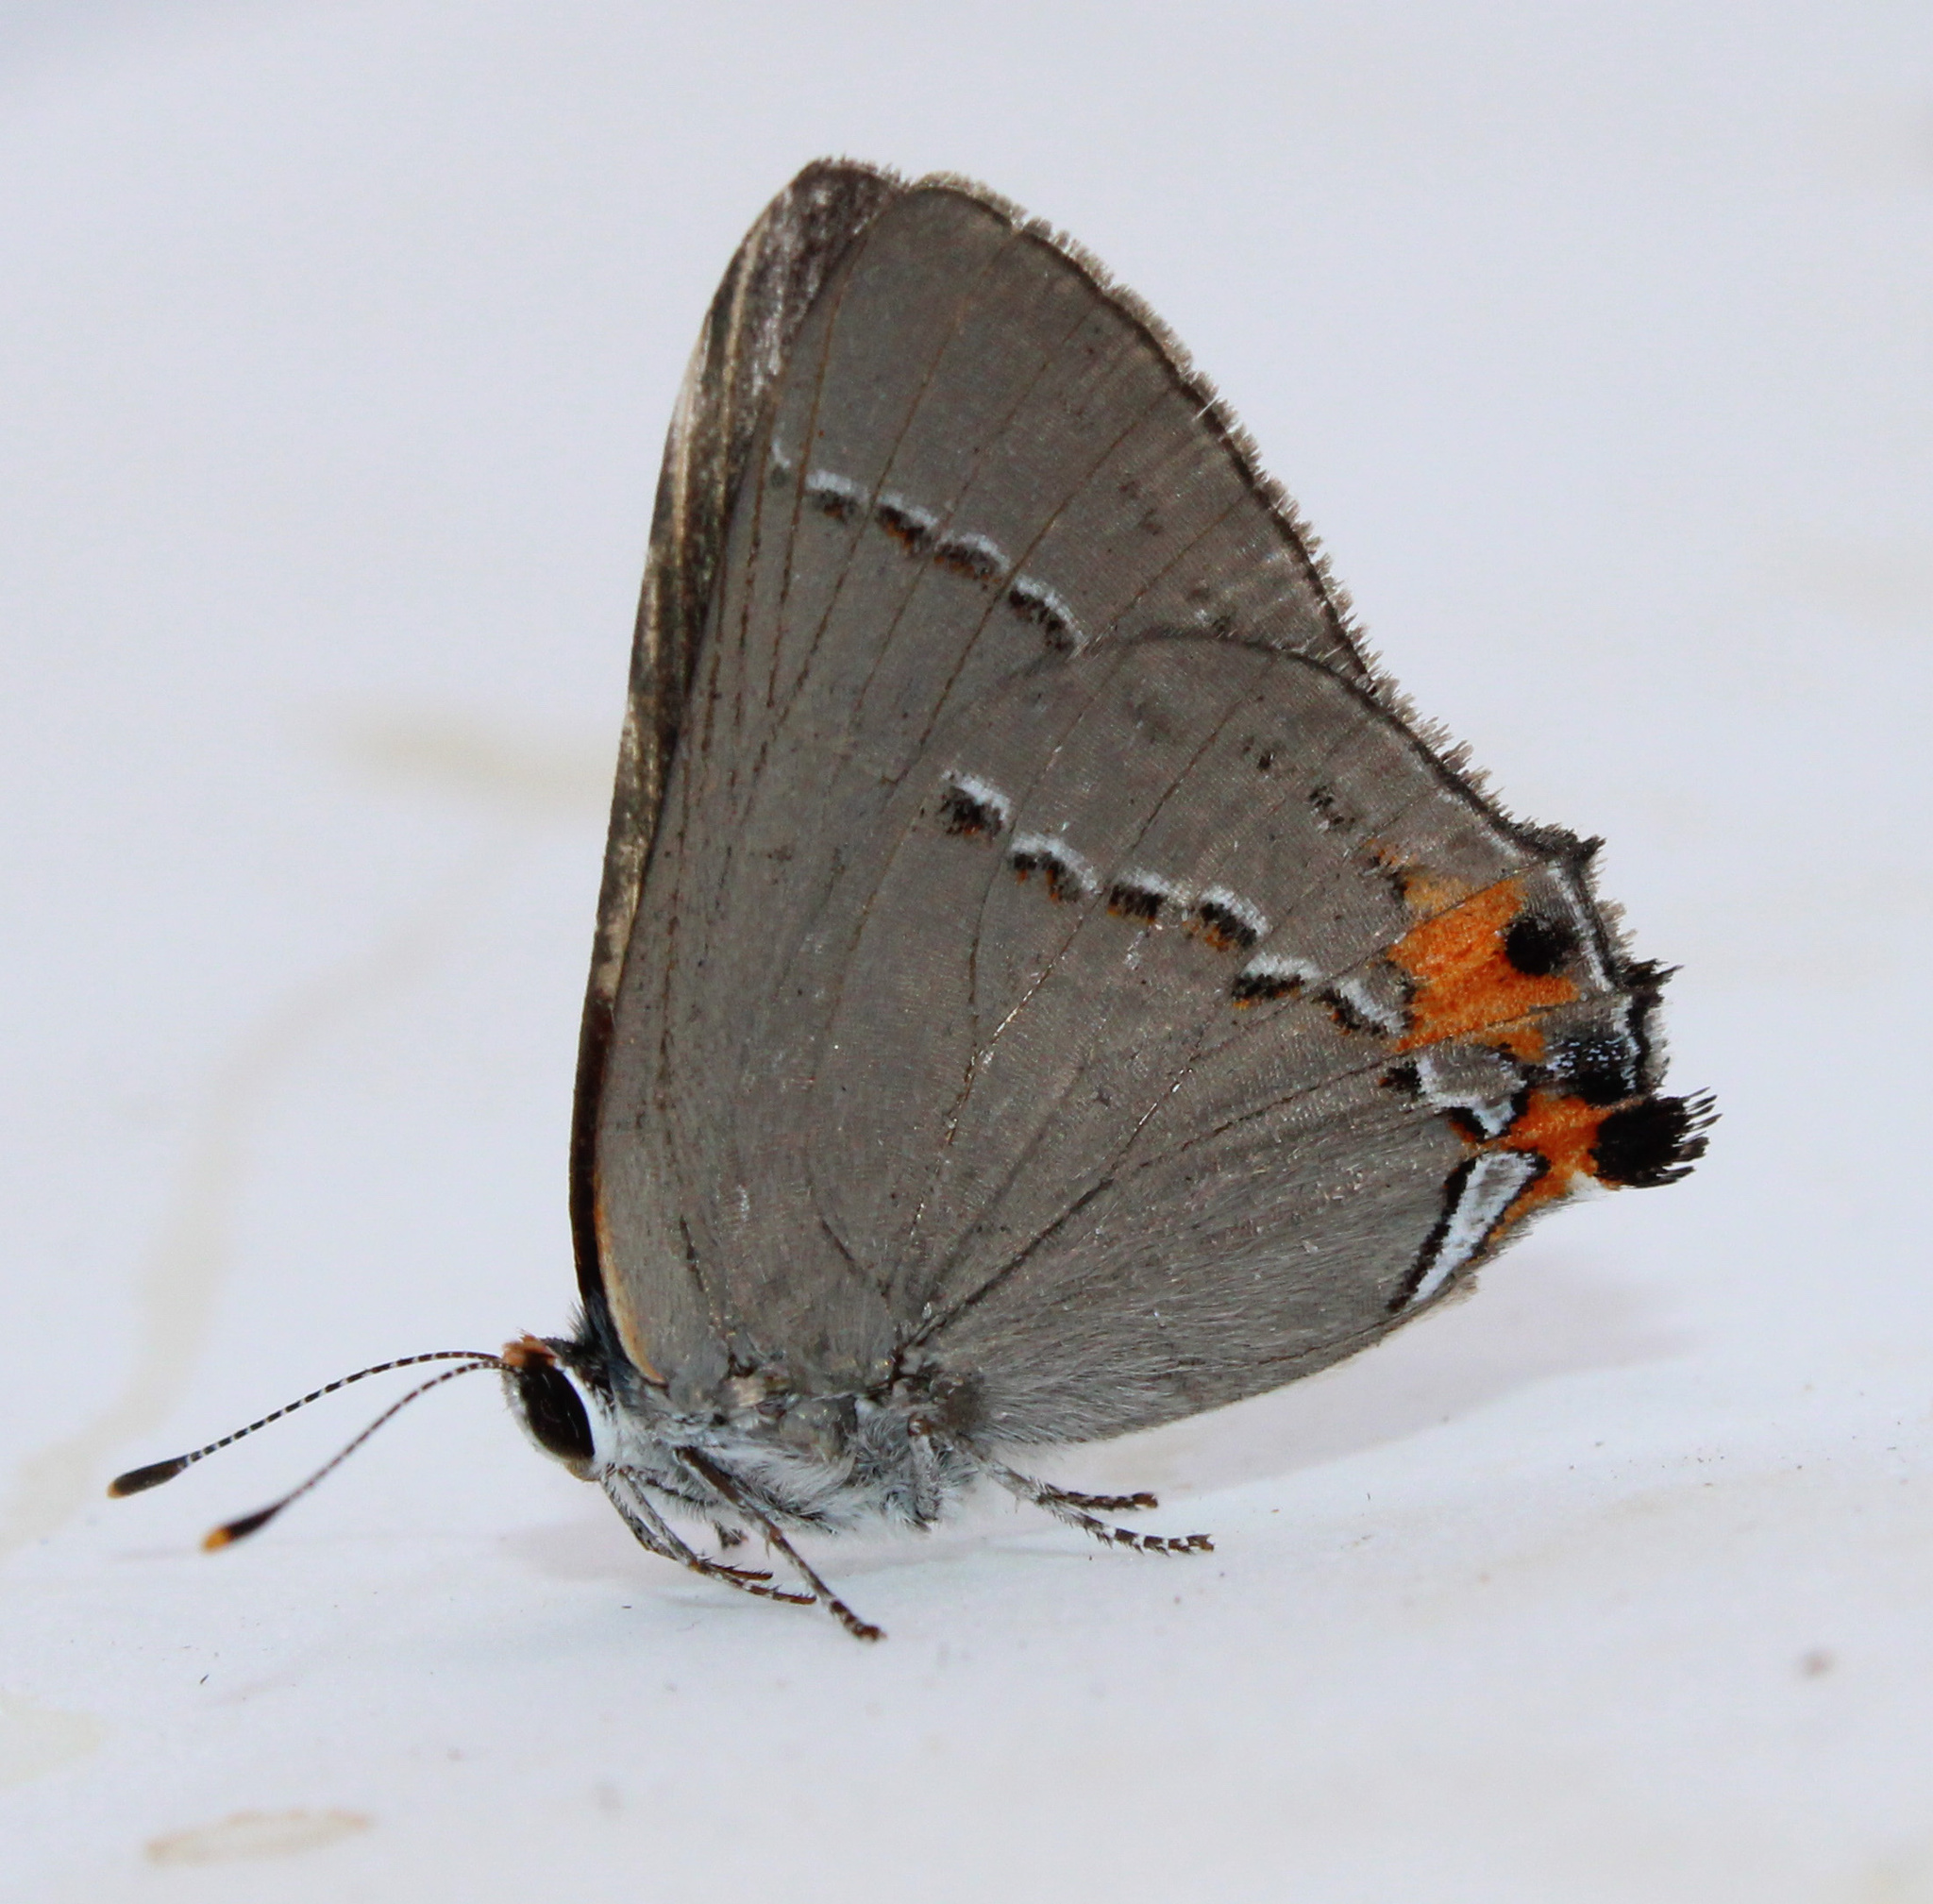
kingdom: Animalia
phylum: Arthropoda
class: Insecta
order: Lepidoptera
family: Lycaenidae
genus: Strymon
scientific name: Strymon melinus
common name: Gray hairstreak
